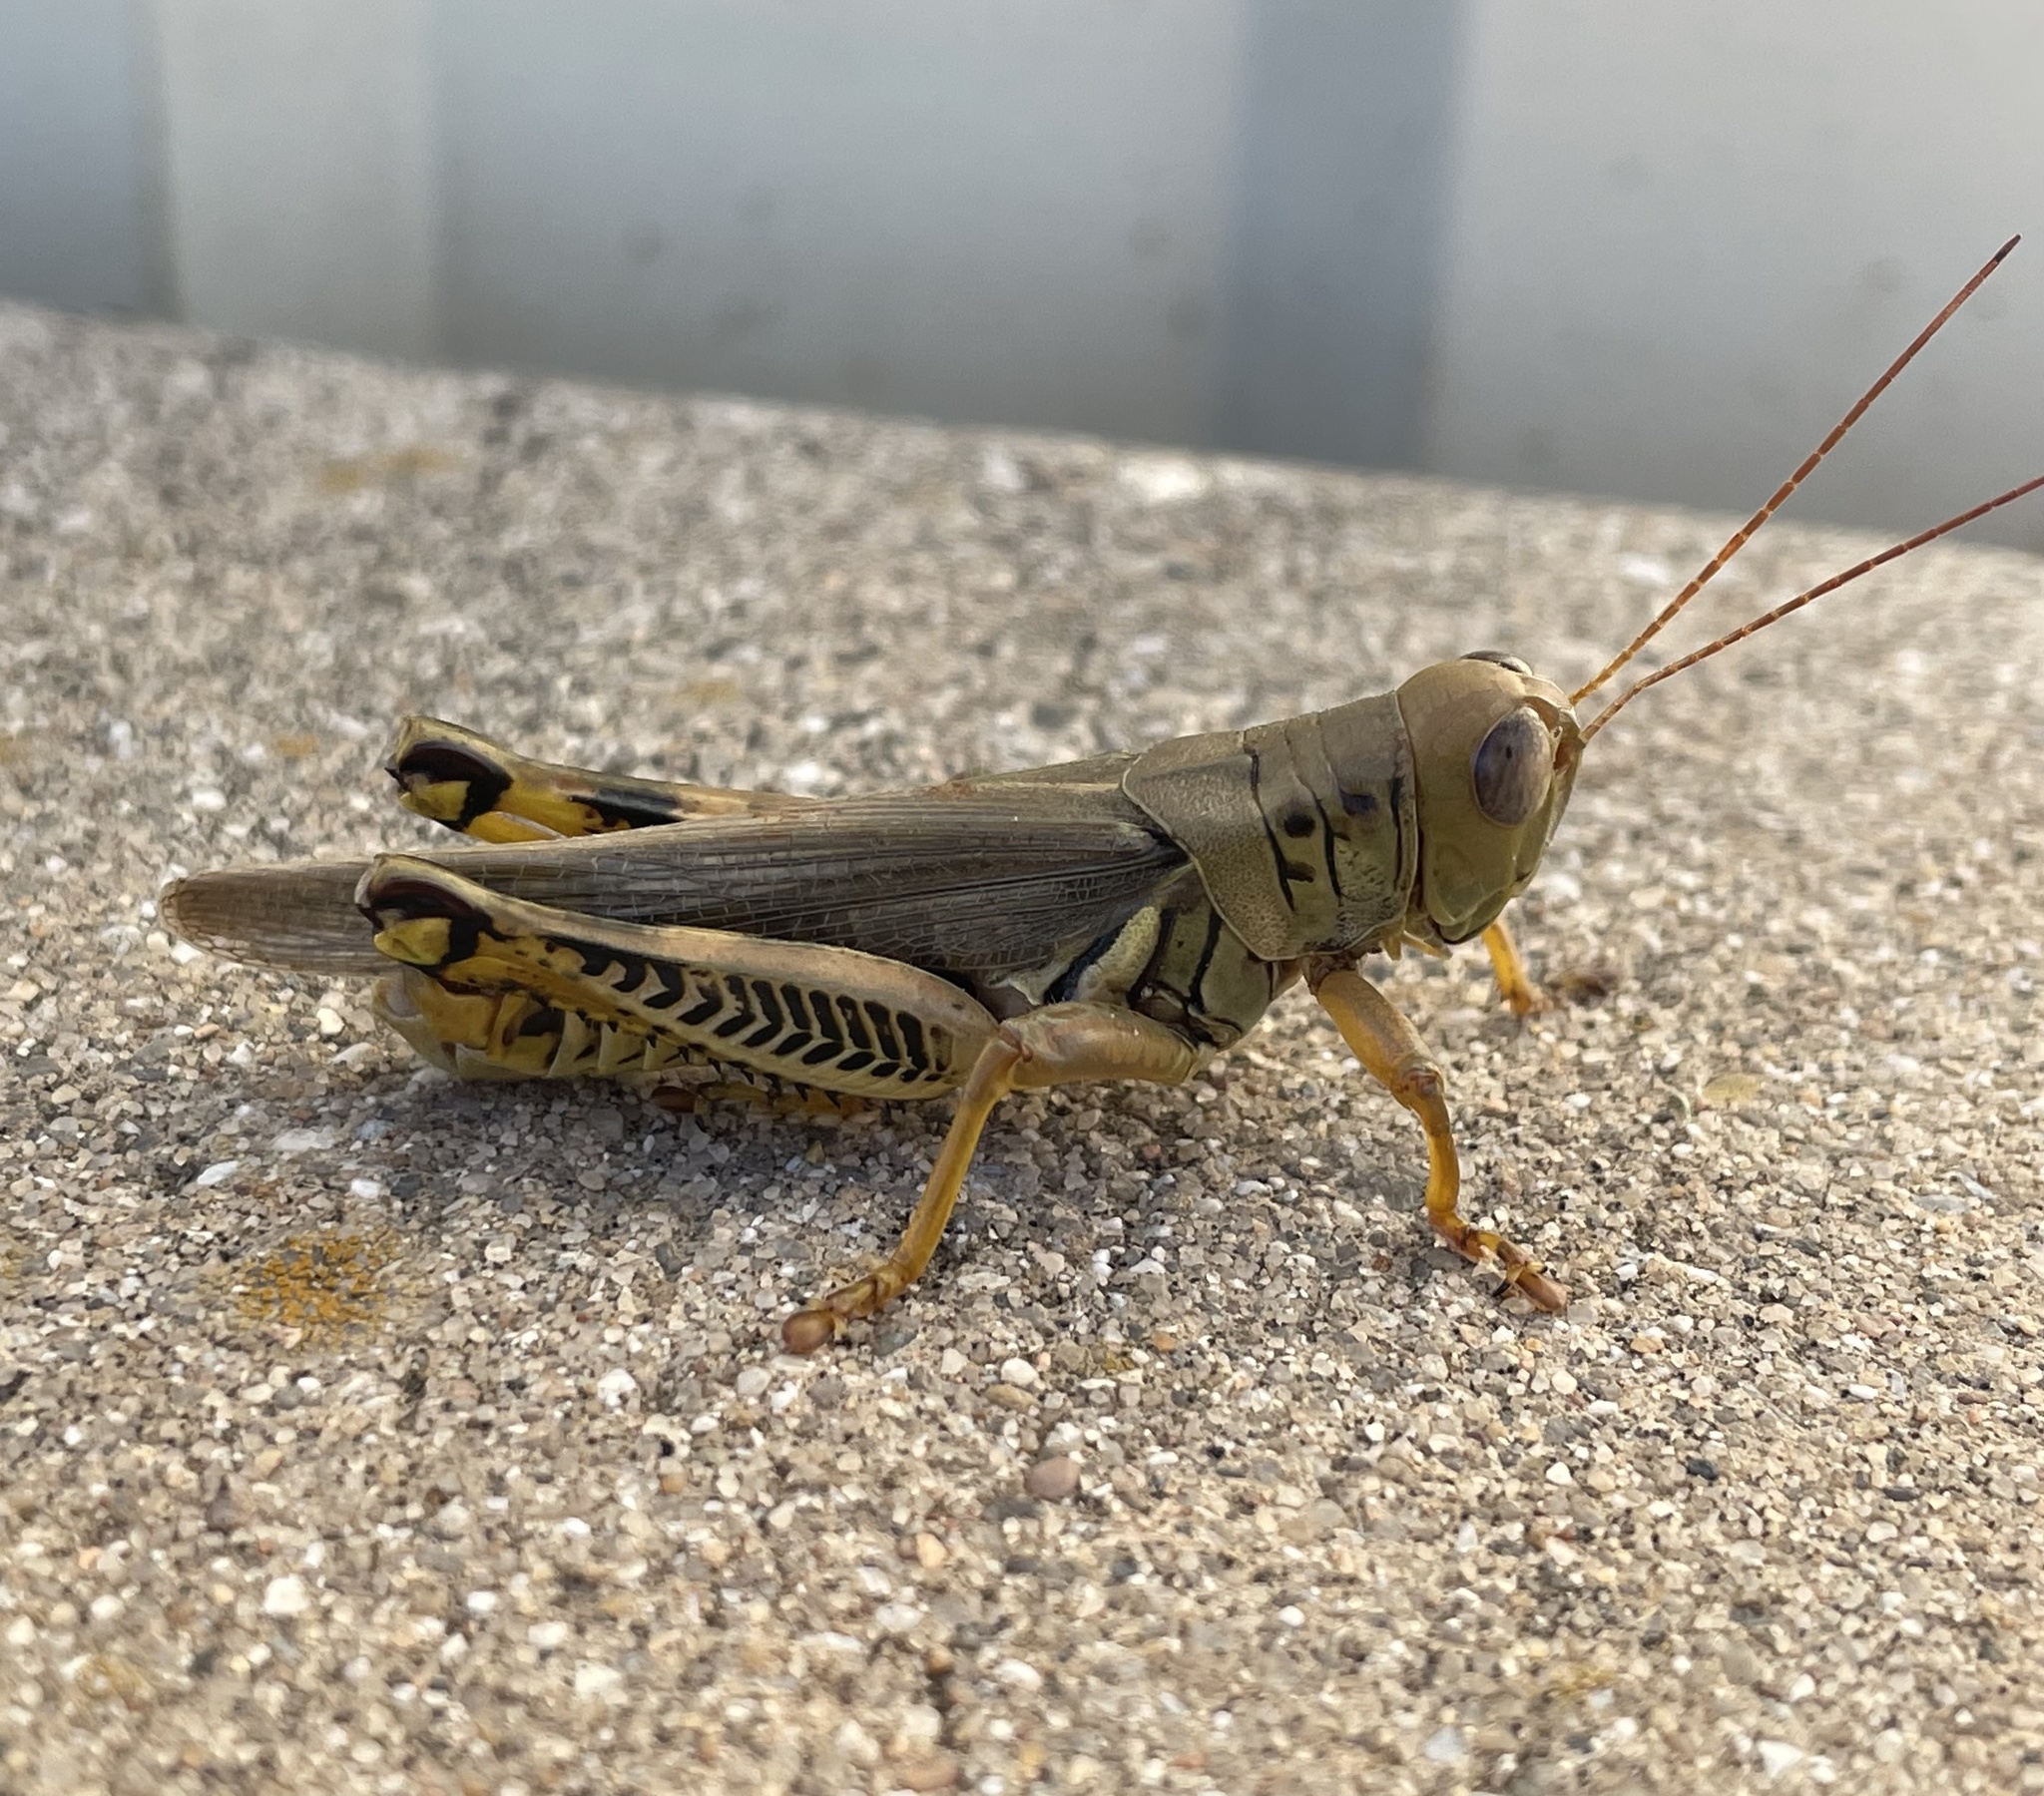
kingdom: Animalia
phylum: Arthropoda
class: Insecta
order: Orthoptera
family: Acrididae
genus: Melanoplus
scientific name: Melanoplus differentialis
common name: Differential grasshopper
